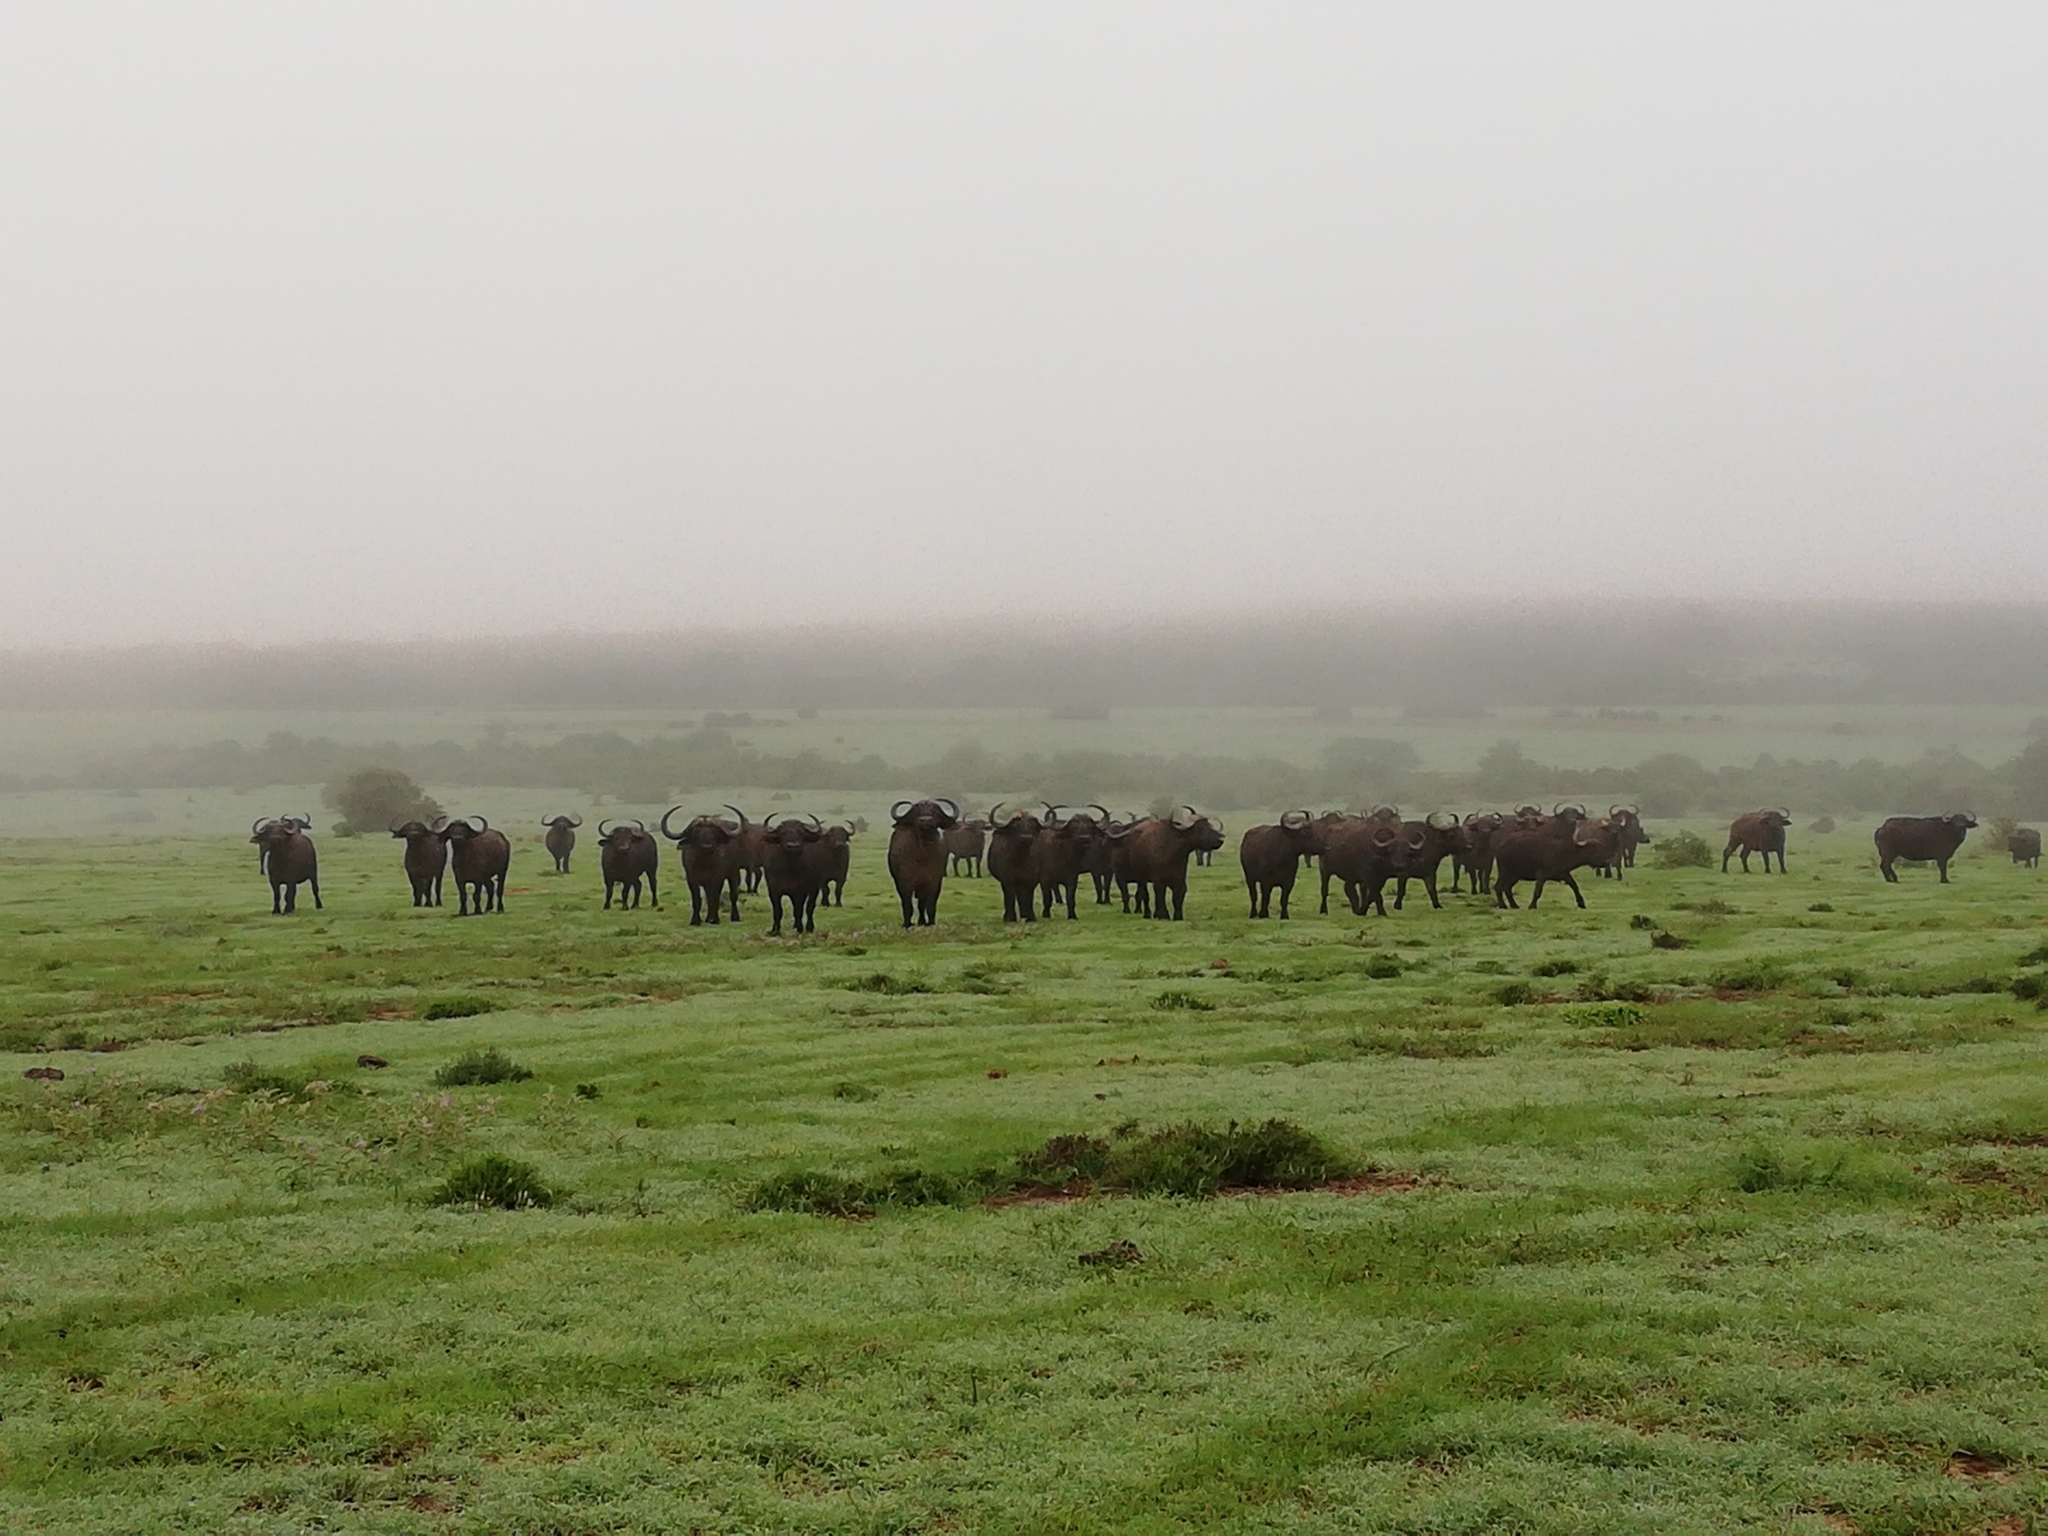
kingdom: Animalia
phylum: Chordata
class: Mammalia
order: Artiodactyla
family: Bovidae
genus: Syncerus
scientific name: Syncerus caffer
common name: African buffalo
